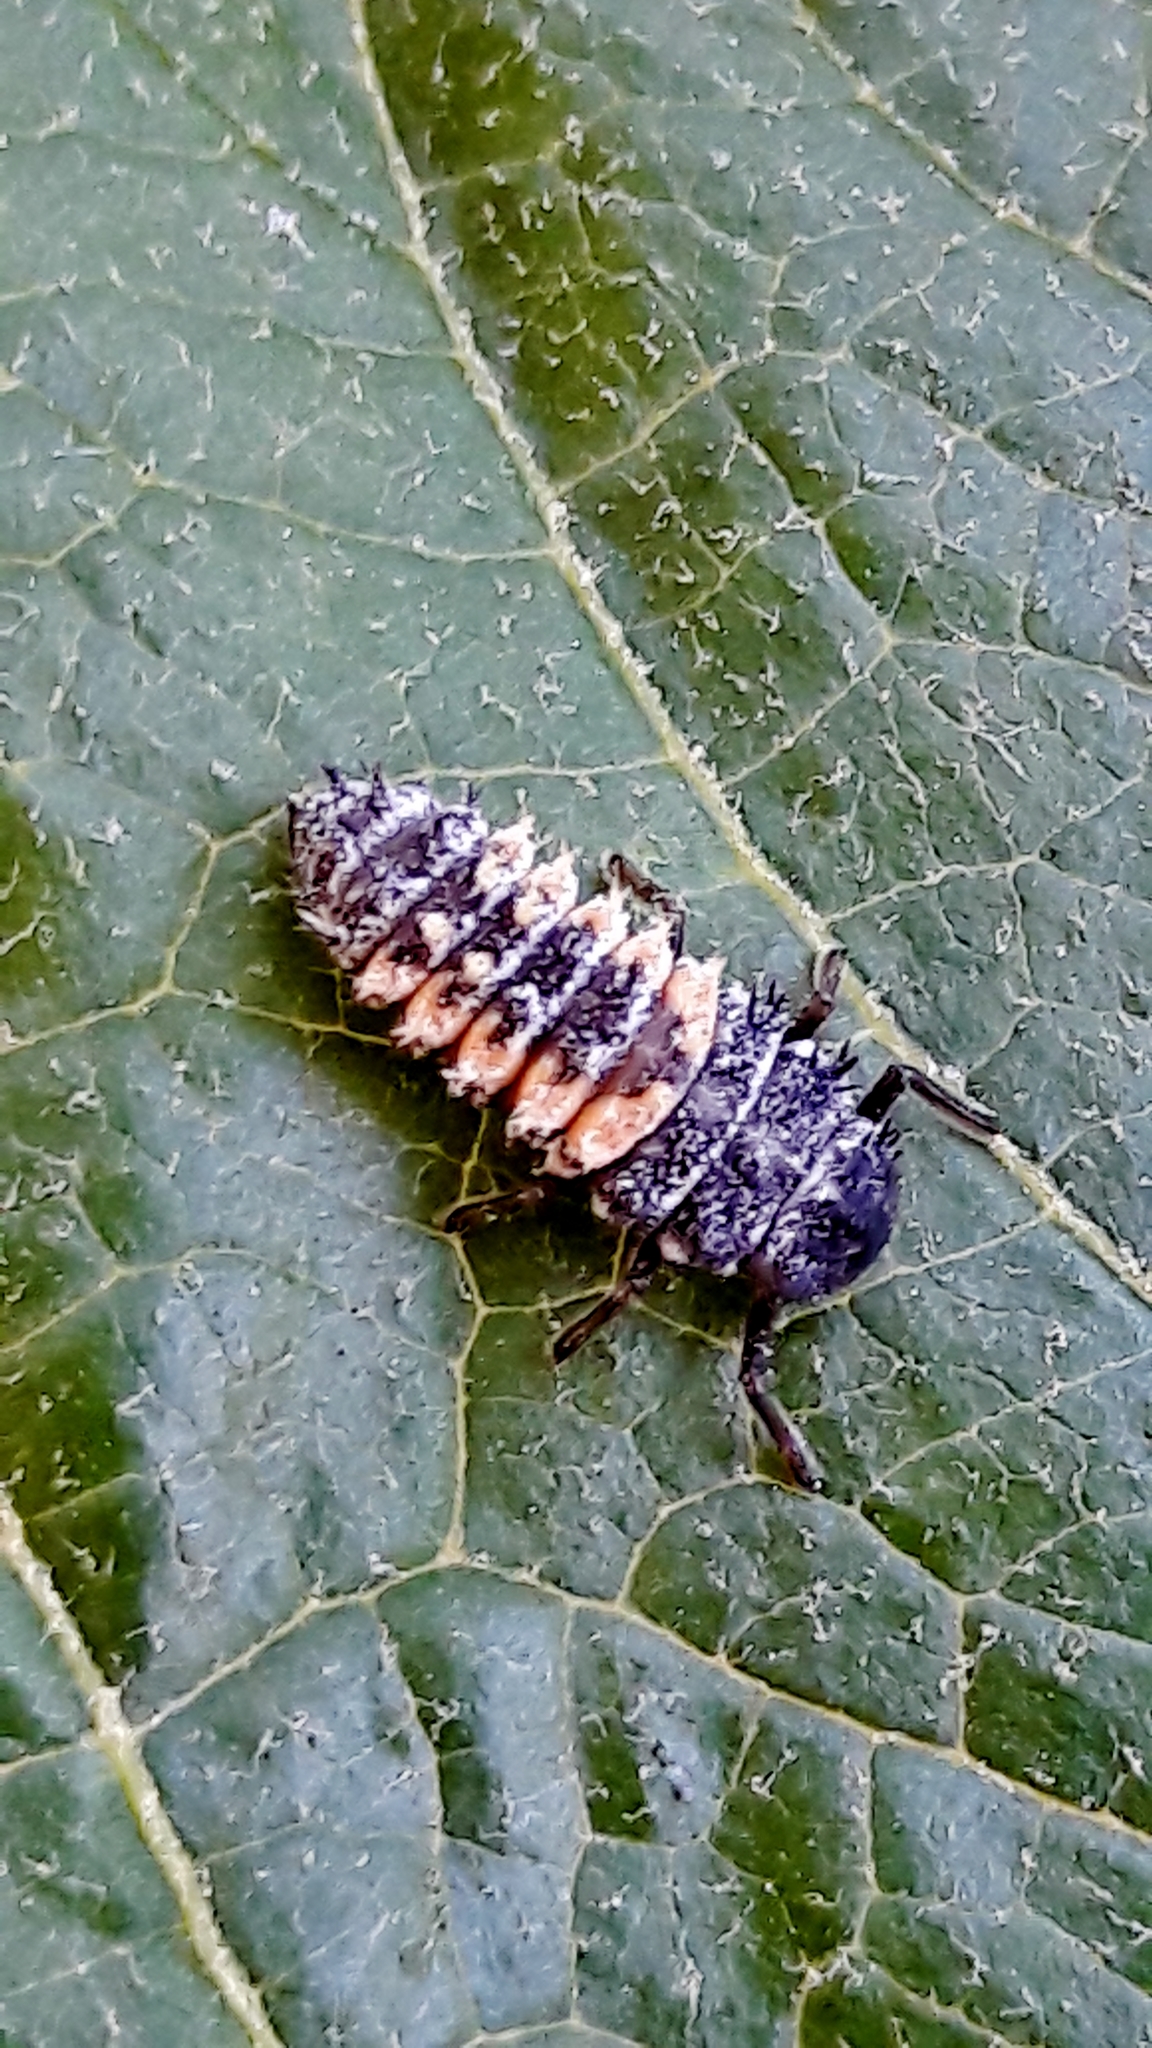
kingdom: Animalia
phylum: Arthropoda
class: Insecta
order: Coleoptera
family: Coccinellidae
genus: Harmonia
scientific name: Harmonia axyridis
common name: Harlequin ladybird
